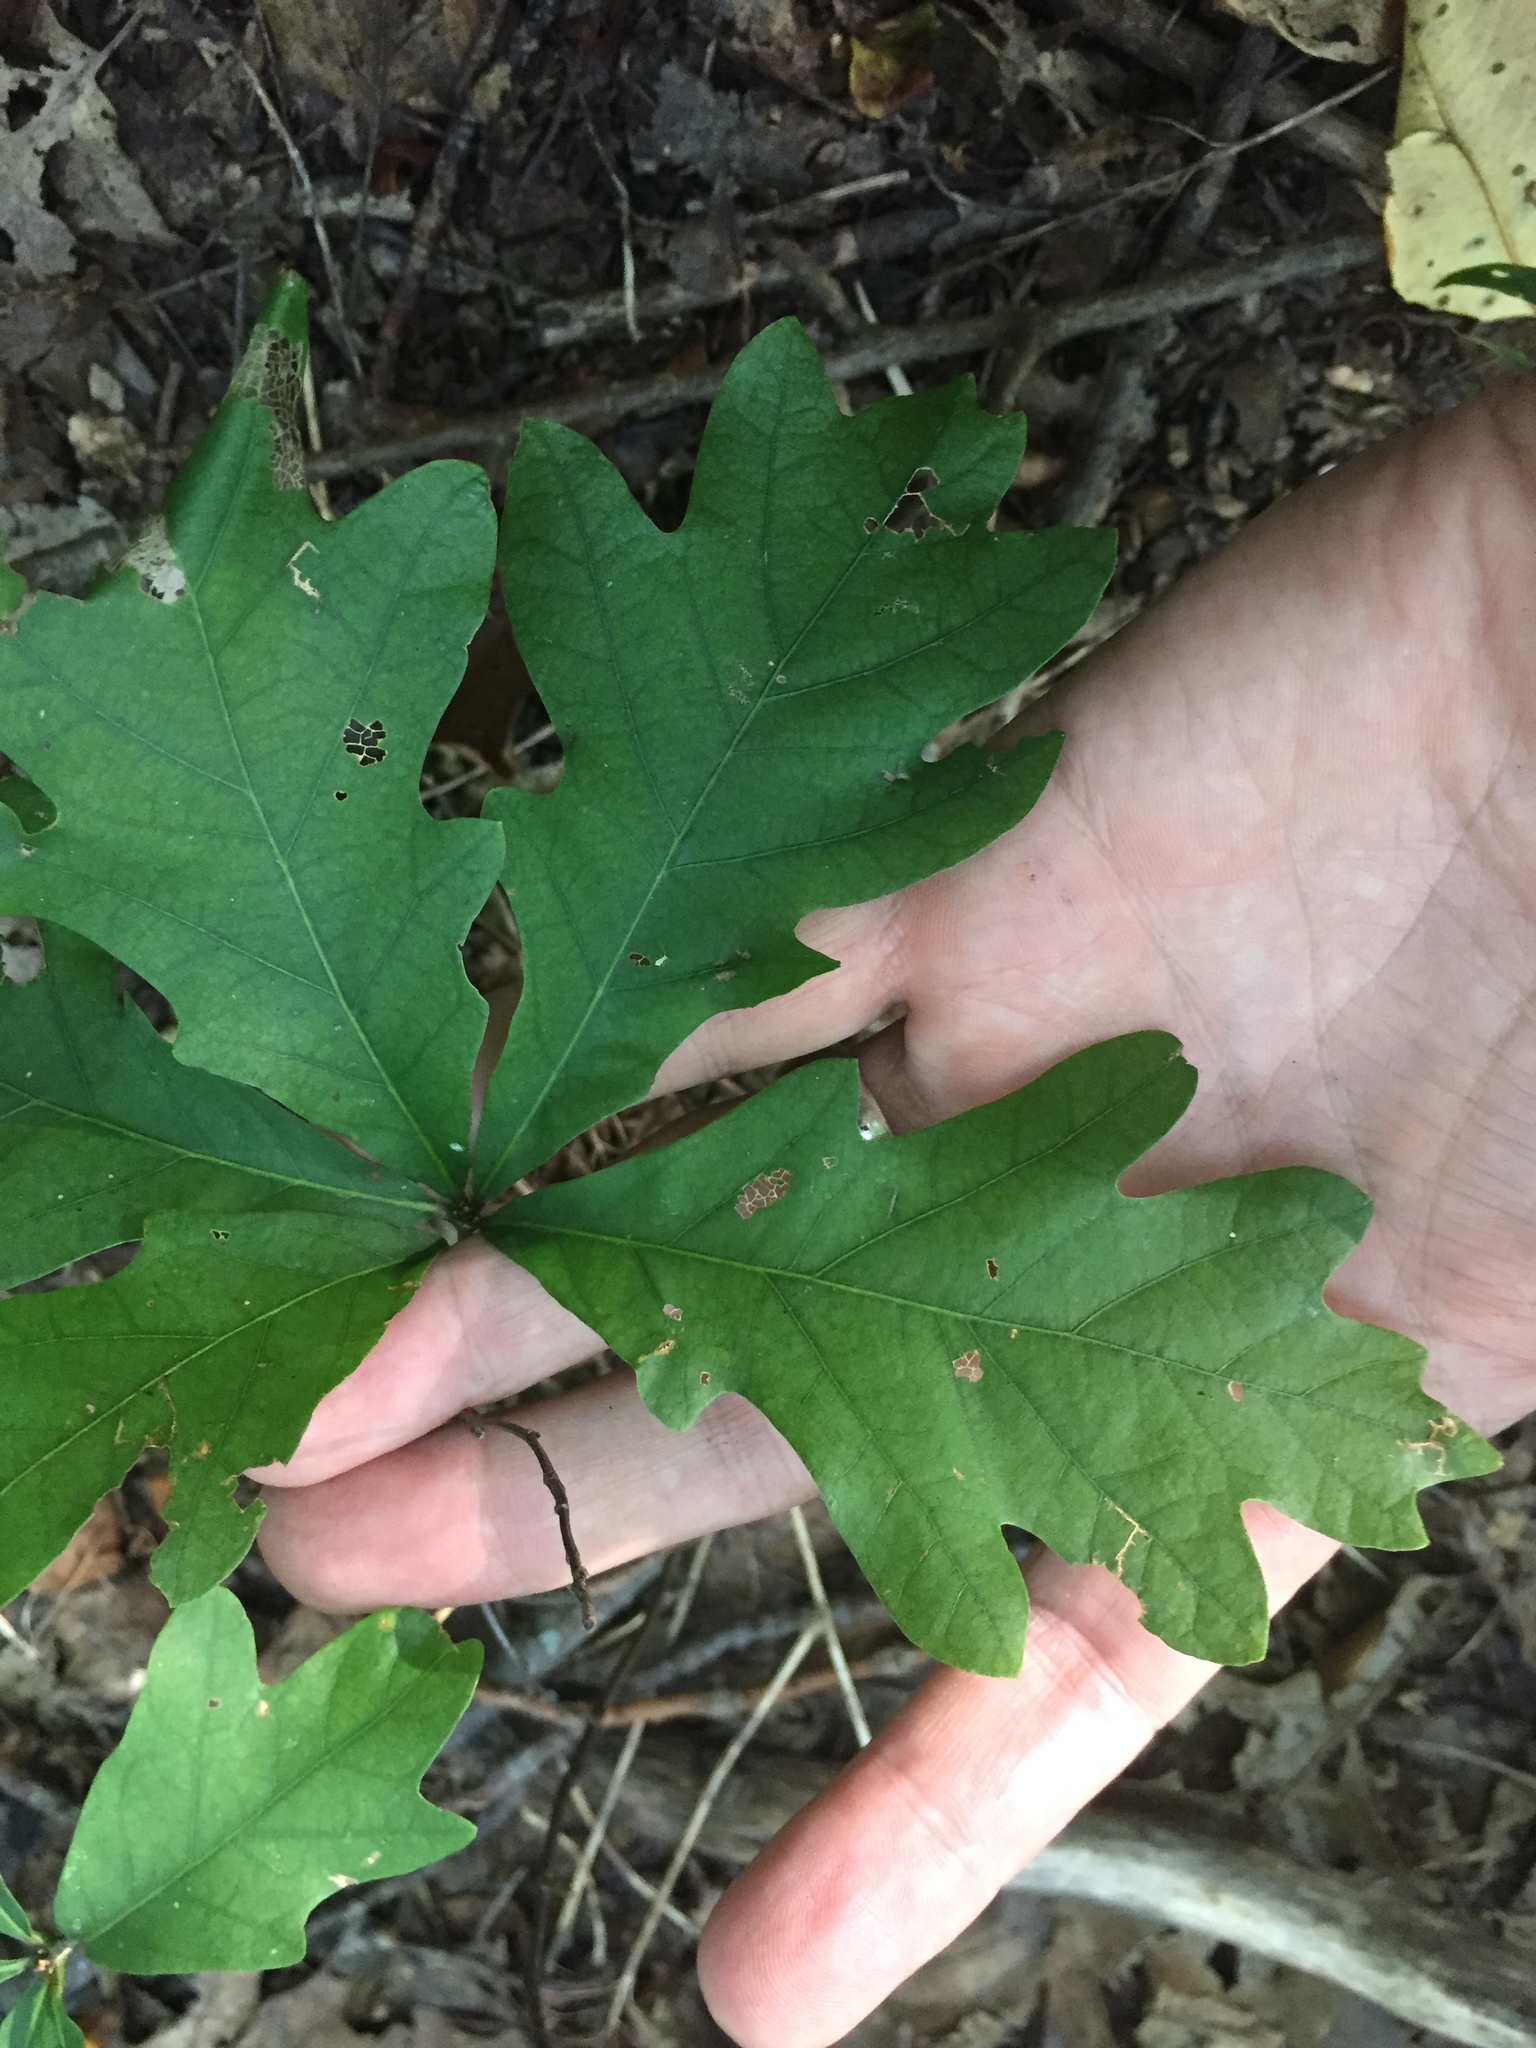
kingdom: Plantae
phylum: Tracheophyta
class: Magnoliopsida
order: Fagales
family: Fagaceae
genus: Quercus
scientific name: Quercus alba
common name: White oak
